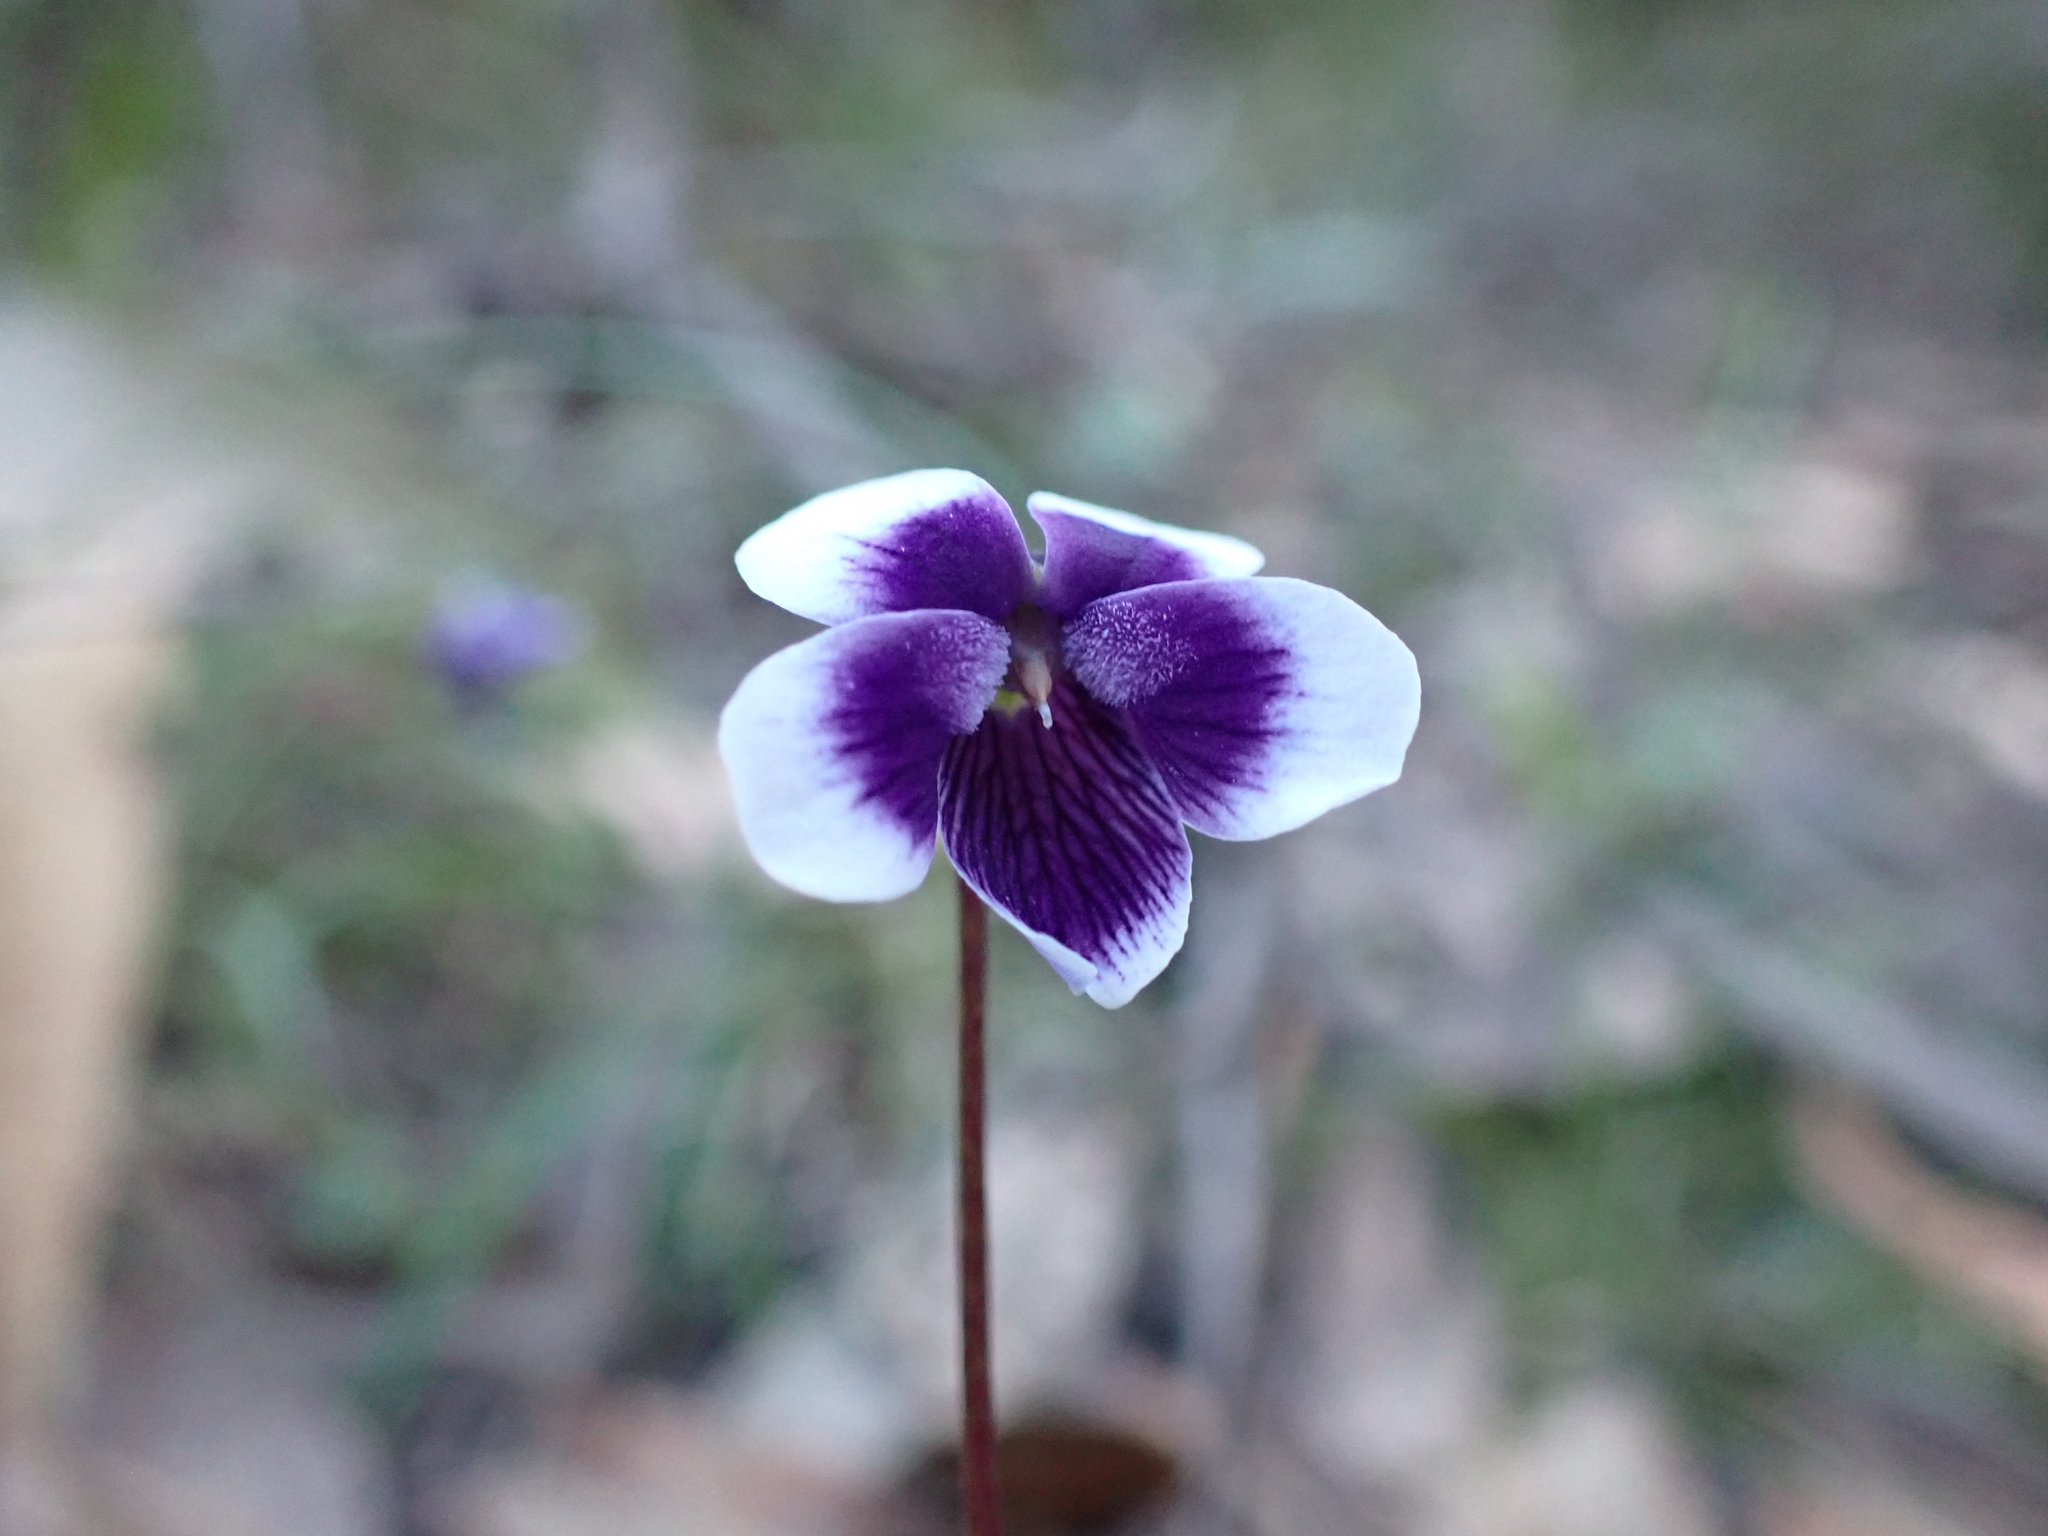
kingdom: Plantae
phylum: Tracheophyta
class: Magnoliopsida
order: Malpighiales
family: Violaceae
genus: Viola
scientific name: Viola hederacea
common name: Australian violet
